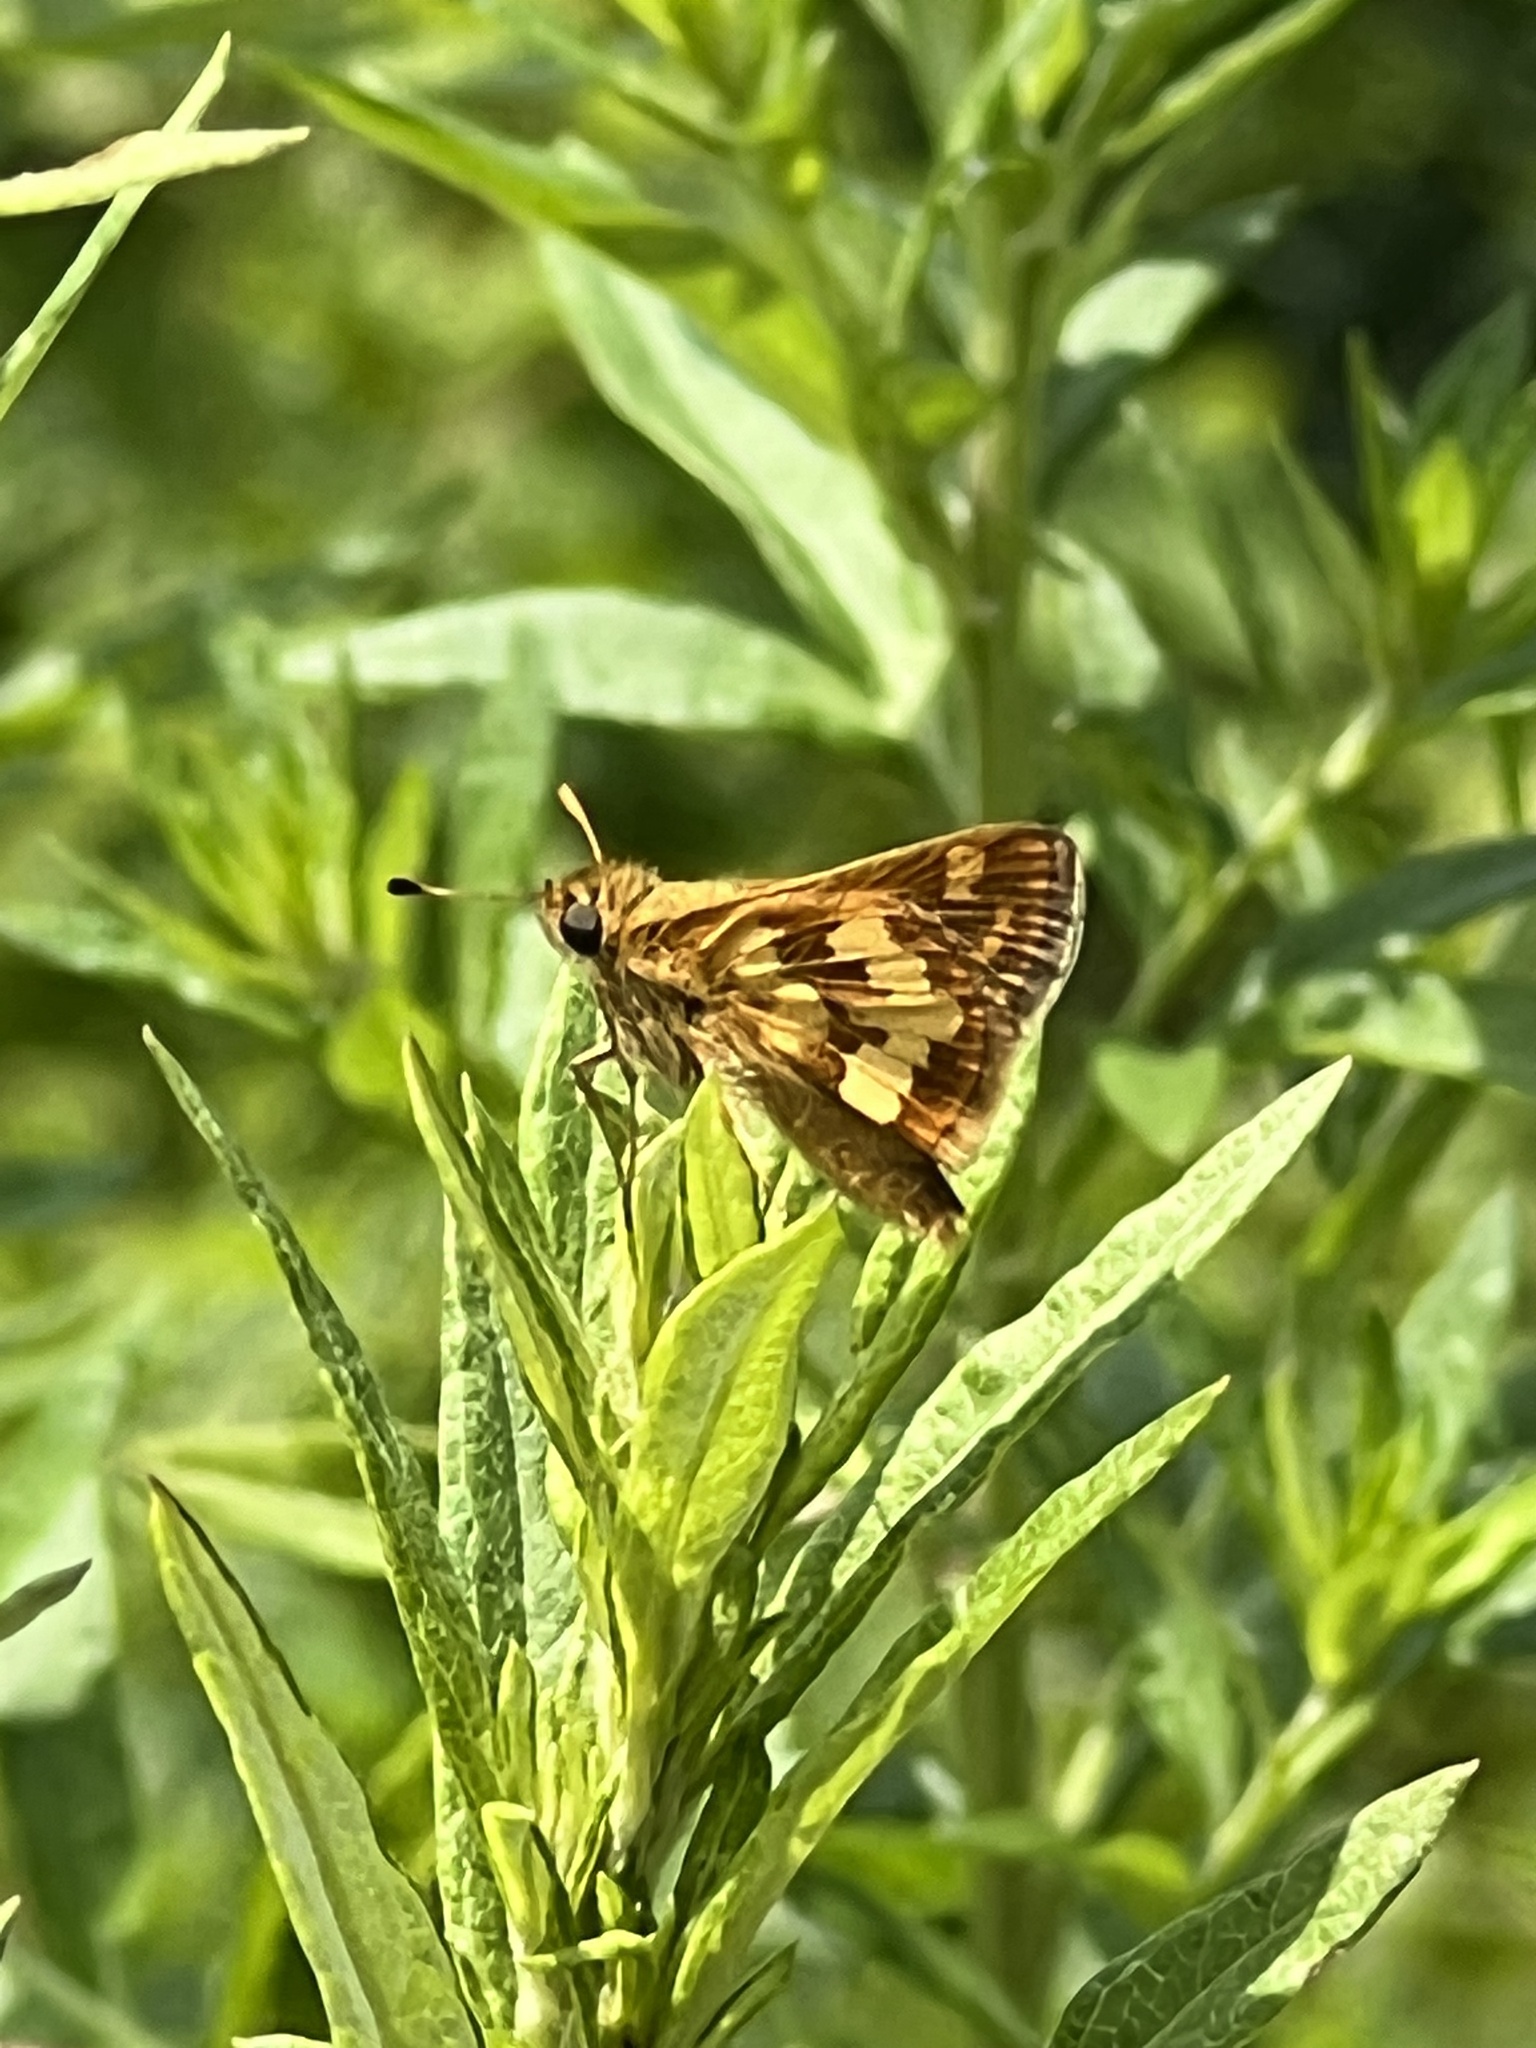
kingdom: Animalia
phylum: Arthropoda
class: Insecta
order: Lepidoptera
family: Hesperiidae
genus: Polites
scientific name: Polites coras
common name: Peck's skipper
